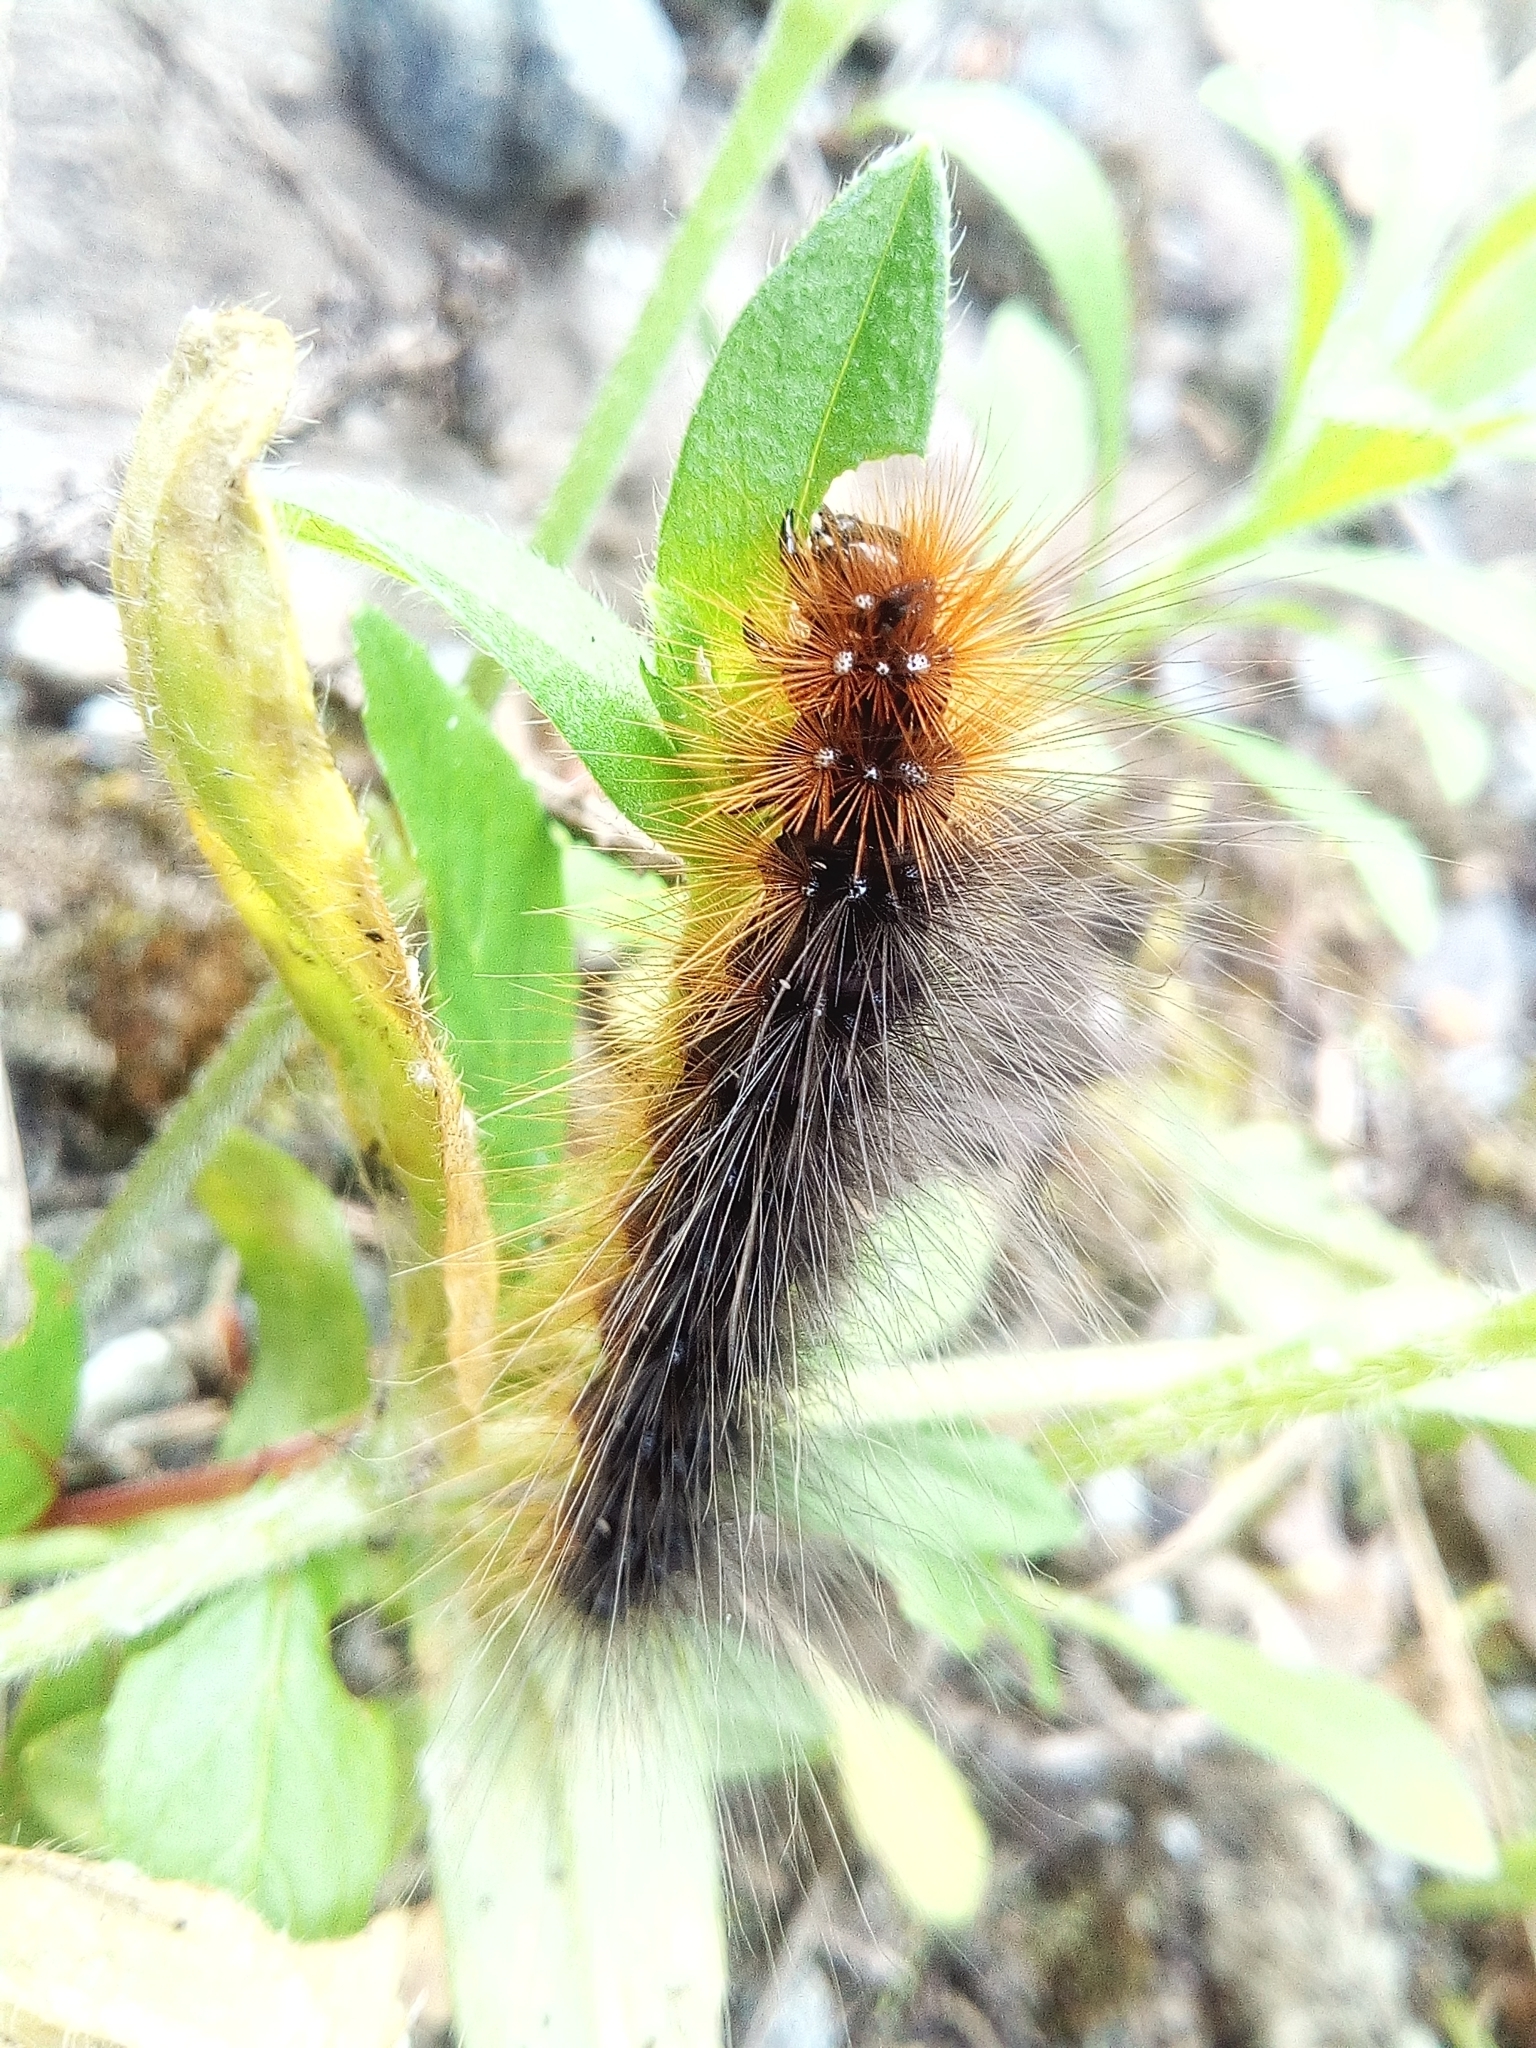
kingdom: Animalia
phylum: Arthropoda
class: Insecta
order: Lepidoptera
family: Erebidae
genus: Arctia
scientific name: Arctia caja
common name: Garden tiger
